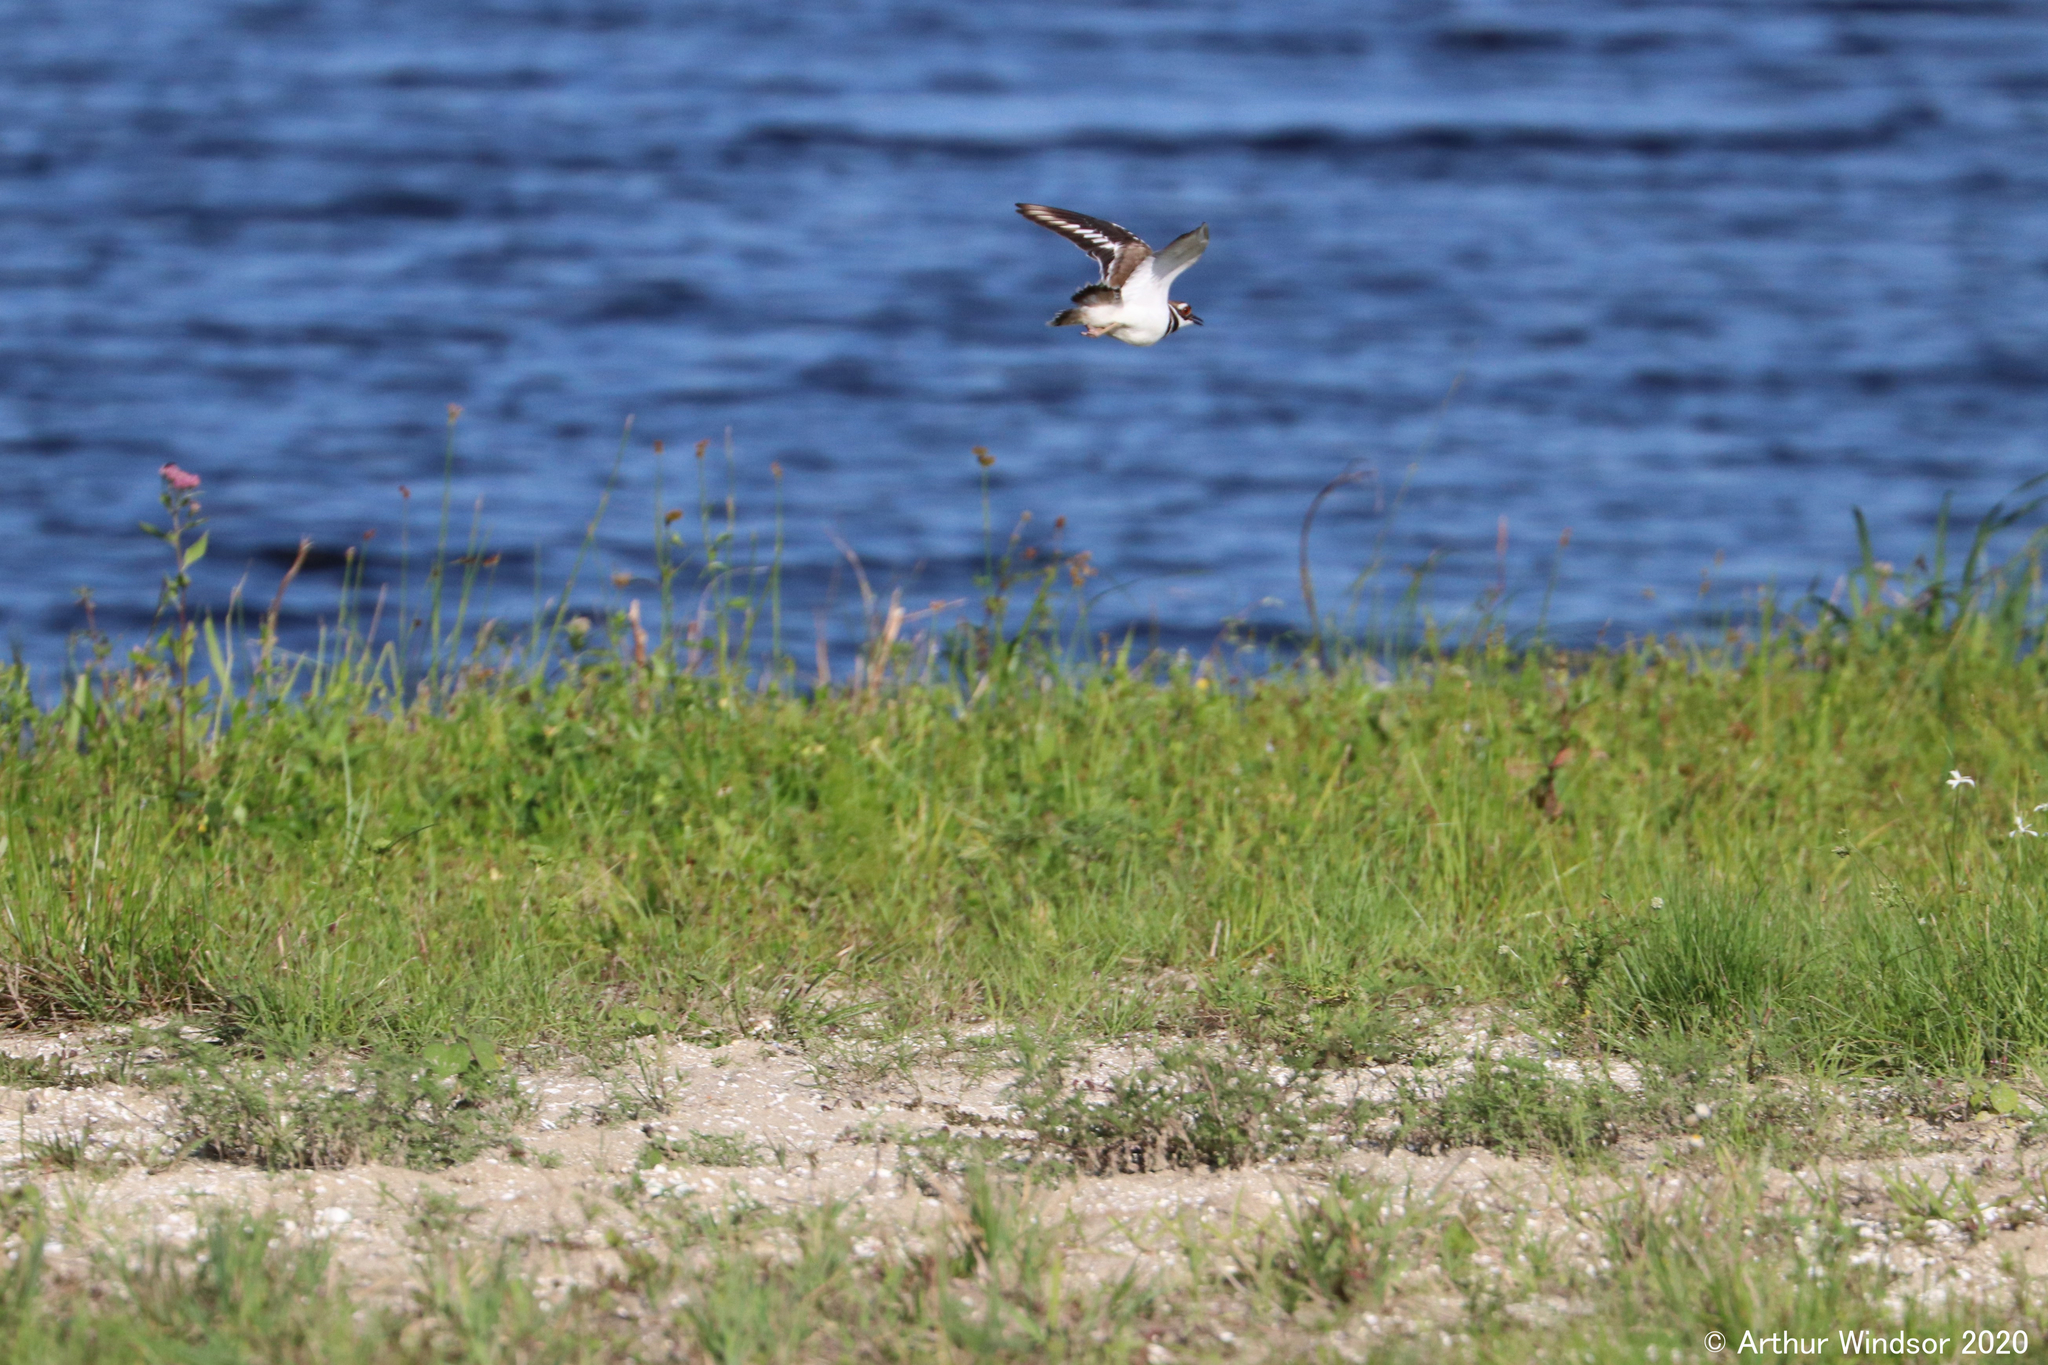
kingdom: Animalia
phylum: Chordata
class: Aves
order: Charadriiformes
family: Charadriidae
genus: Charadrius
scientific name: Charadrius vociferus
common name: Killdeer
